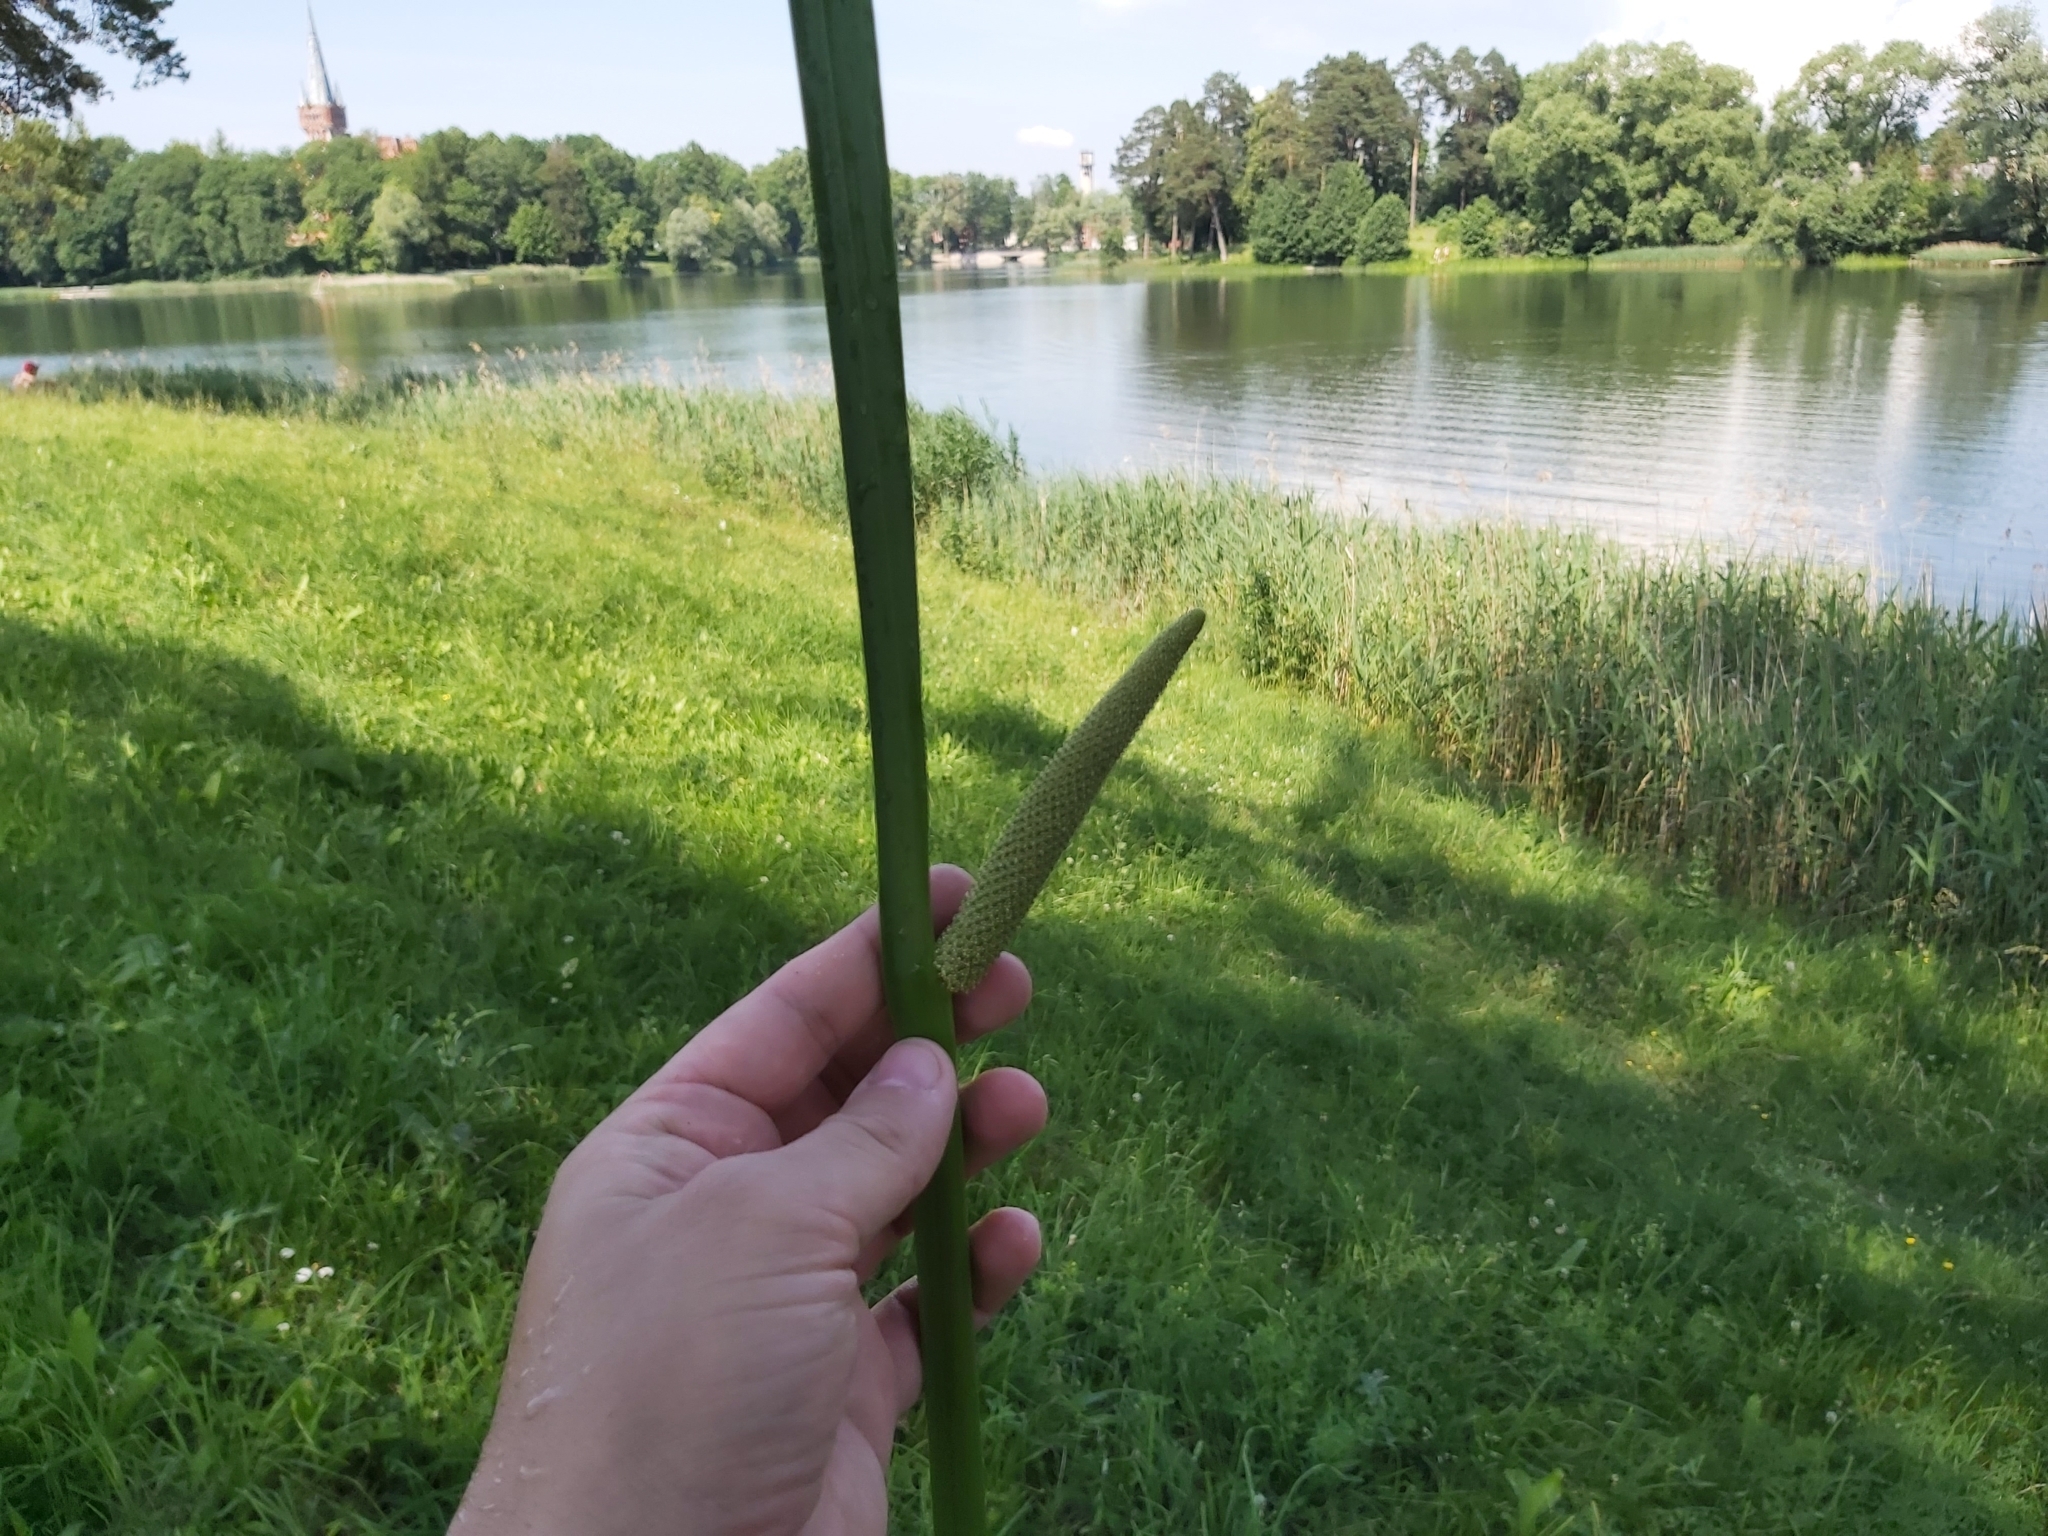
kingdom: Plantae
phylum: Tracheophyta
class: Liliopsida
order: Acorales
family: Acoraceae
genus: Acorus
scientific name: Acorus calamus
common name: Sweet-flag
